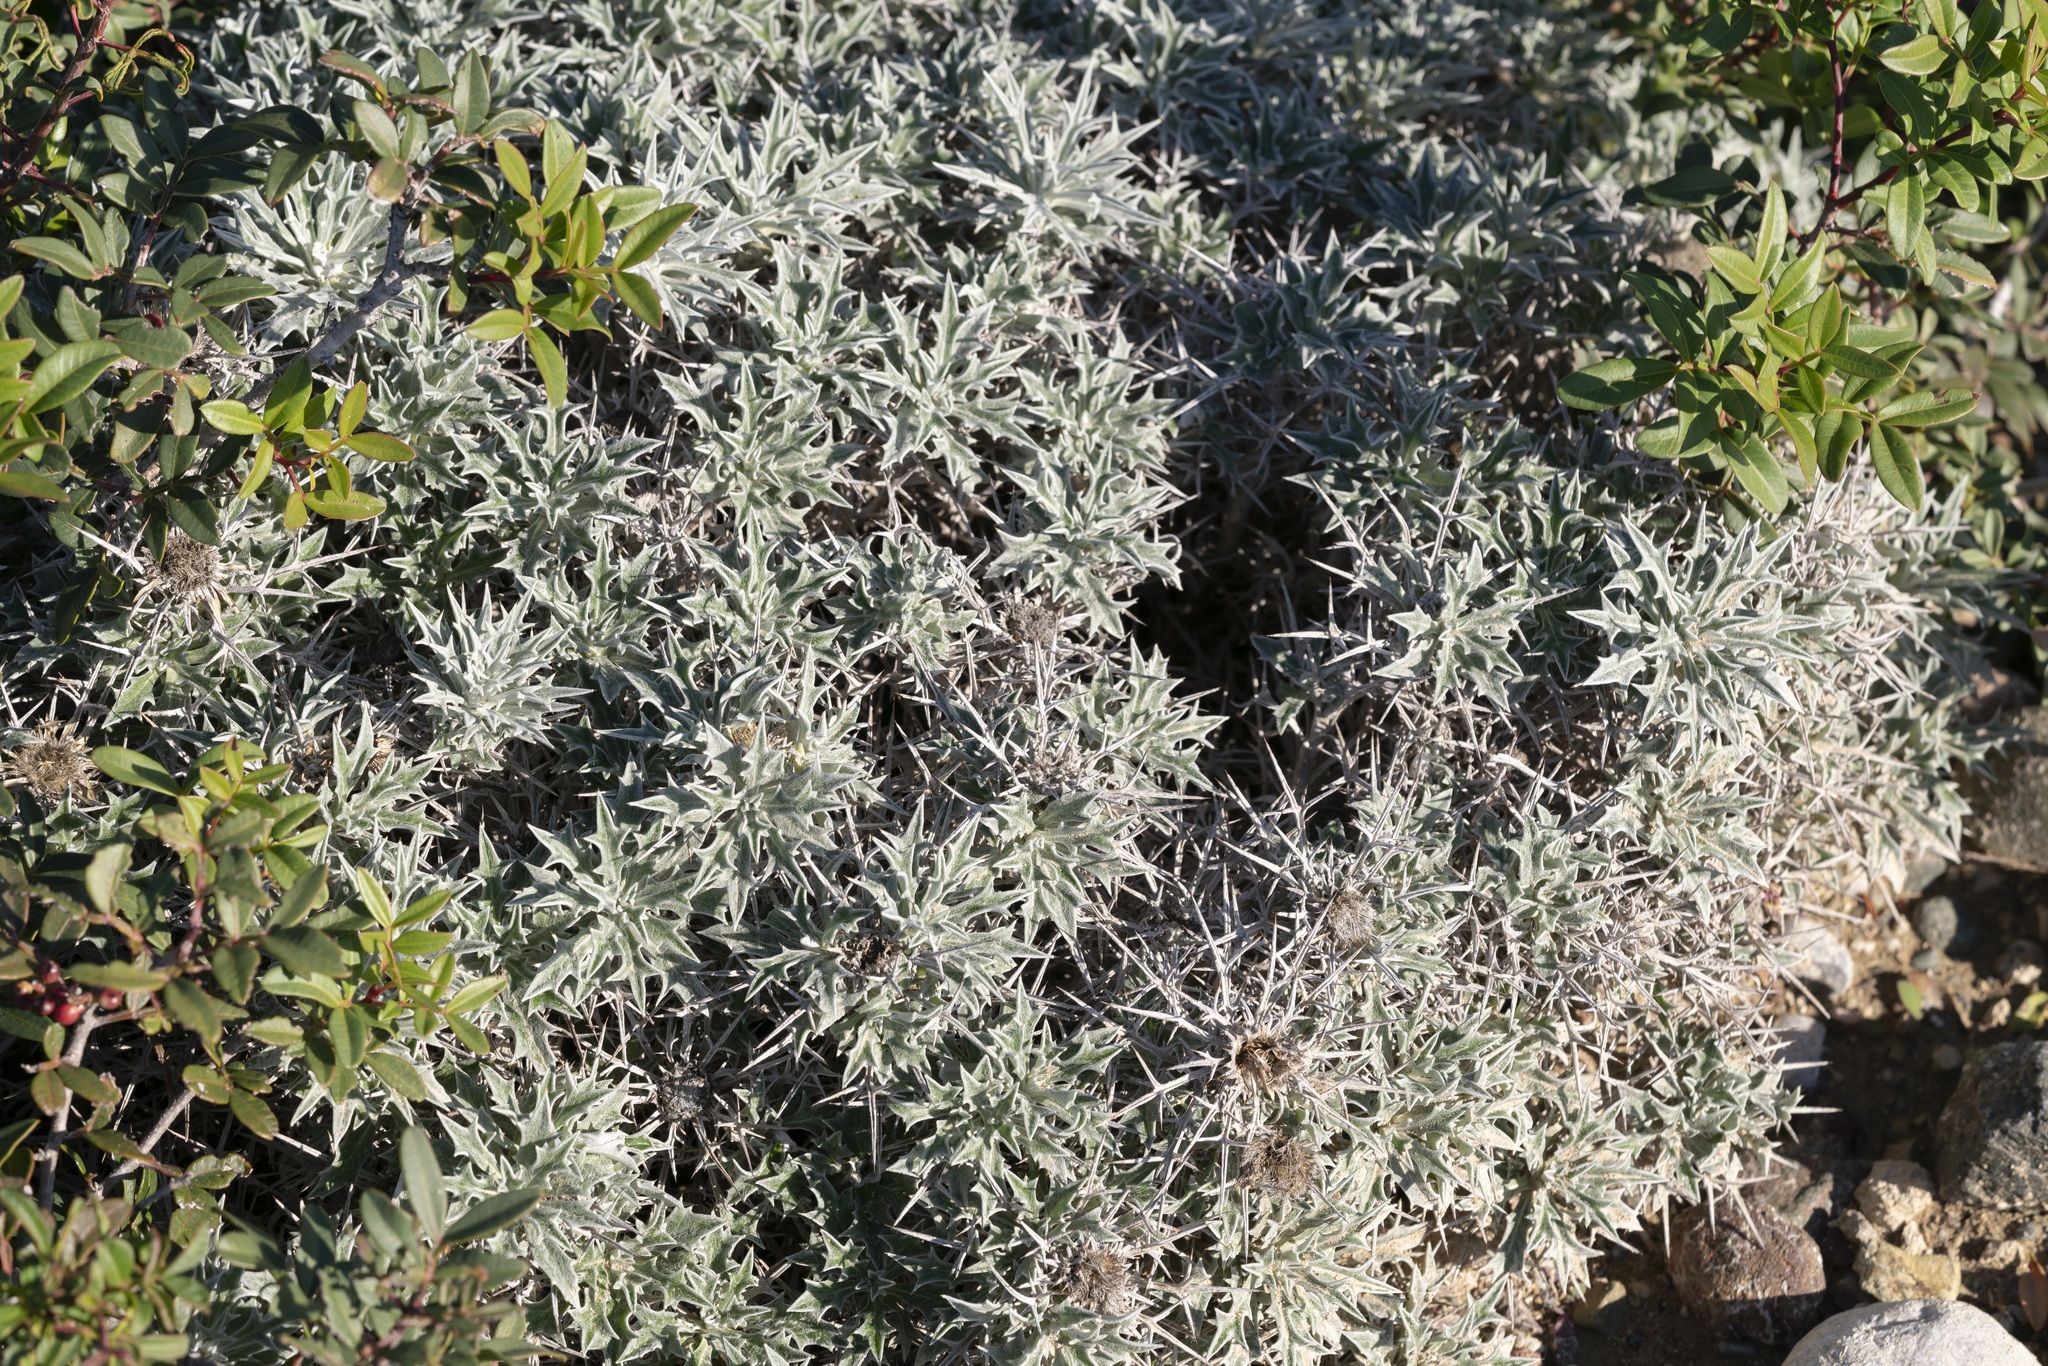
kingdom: Plantae
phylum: Tracheophyta
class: Magnoliopsida
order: Asterales
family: Asteraceae
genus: Carlina
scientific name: Carlina tragacanthifolia
